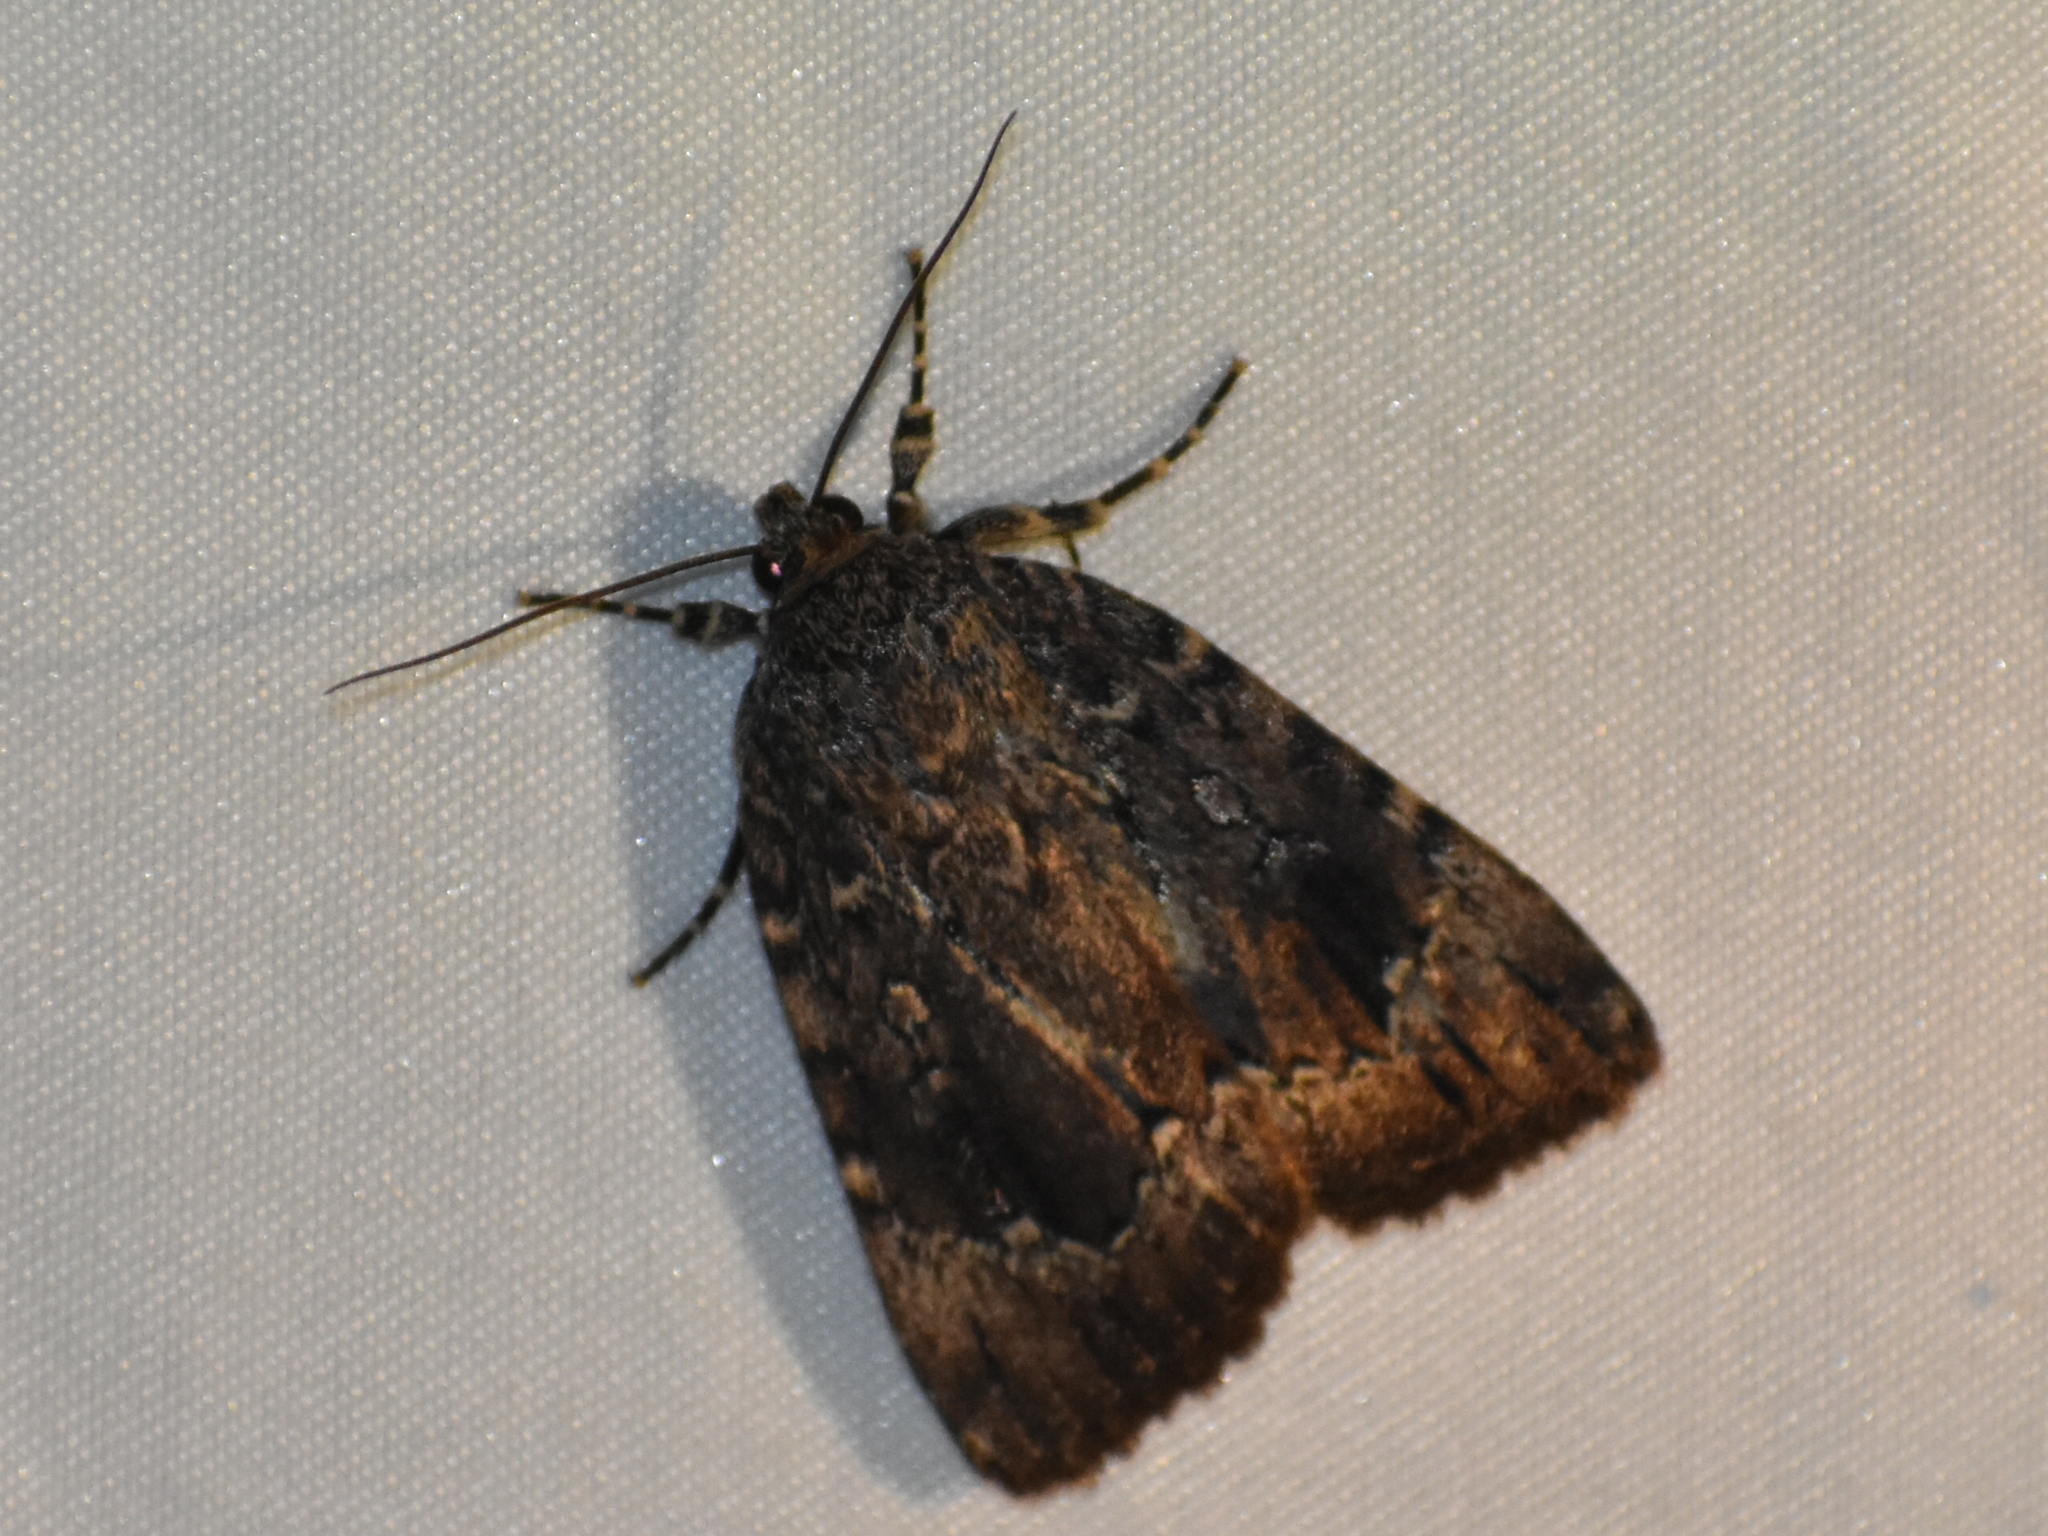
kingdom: Animalia
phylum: Arthropoda
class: Insecta
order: Lepidoptera
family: Noctuidae
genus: Amphipyra
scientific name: Amphipyra pyramidoides
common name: American copper underwing
